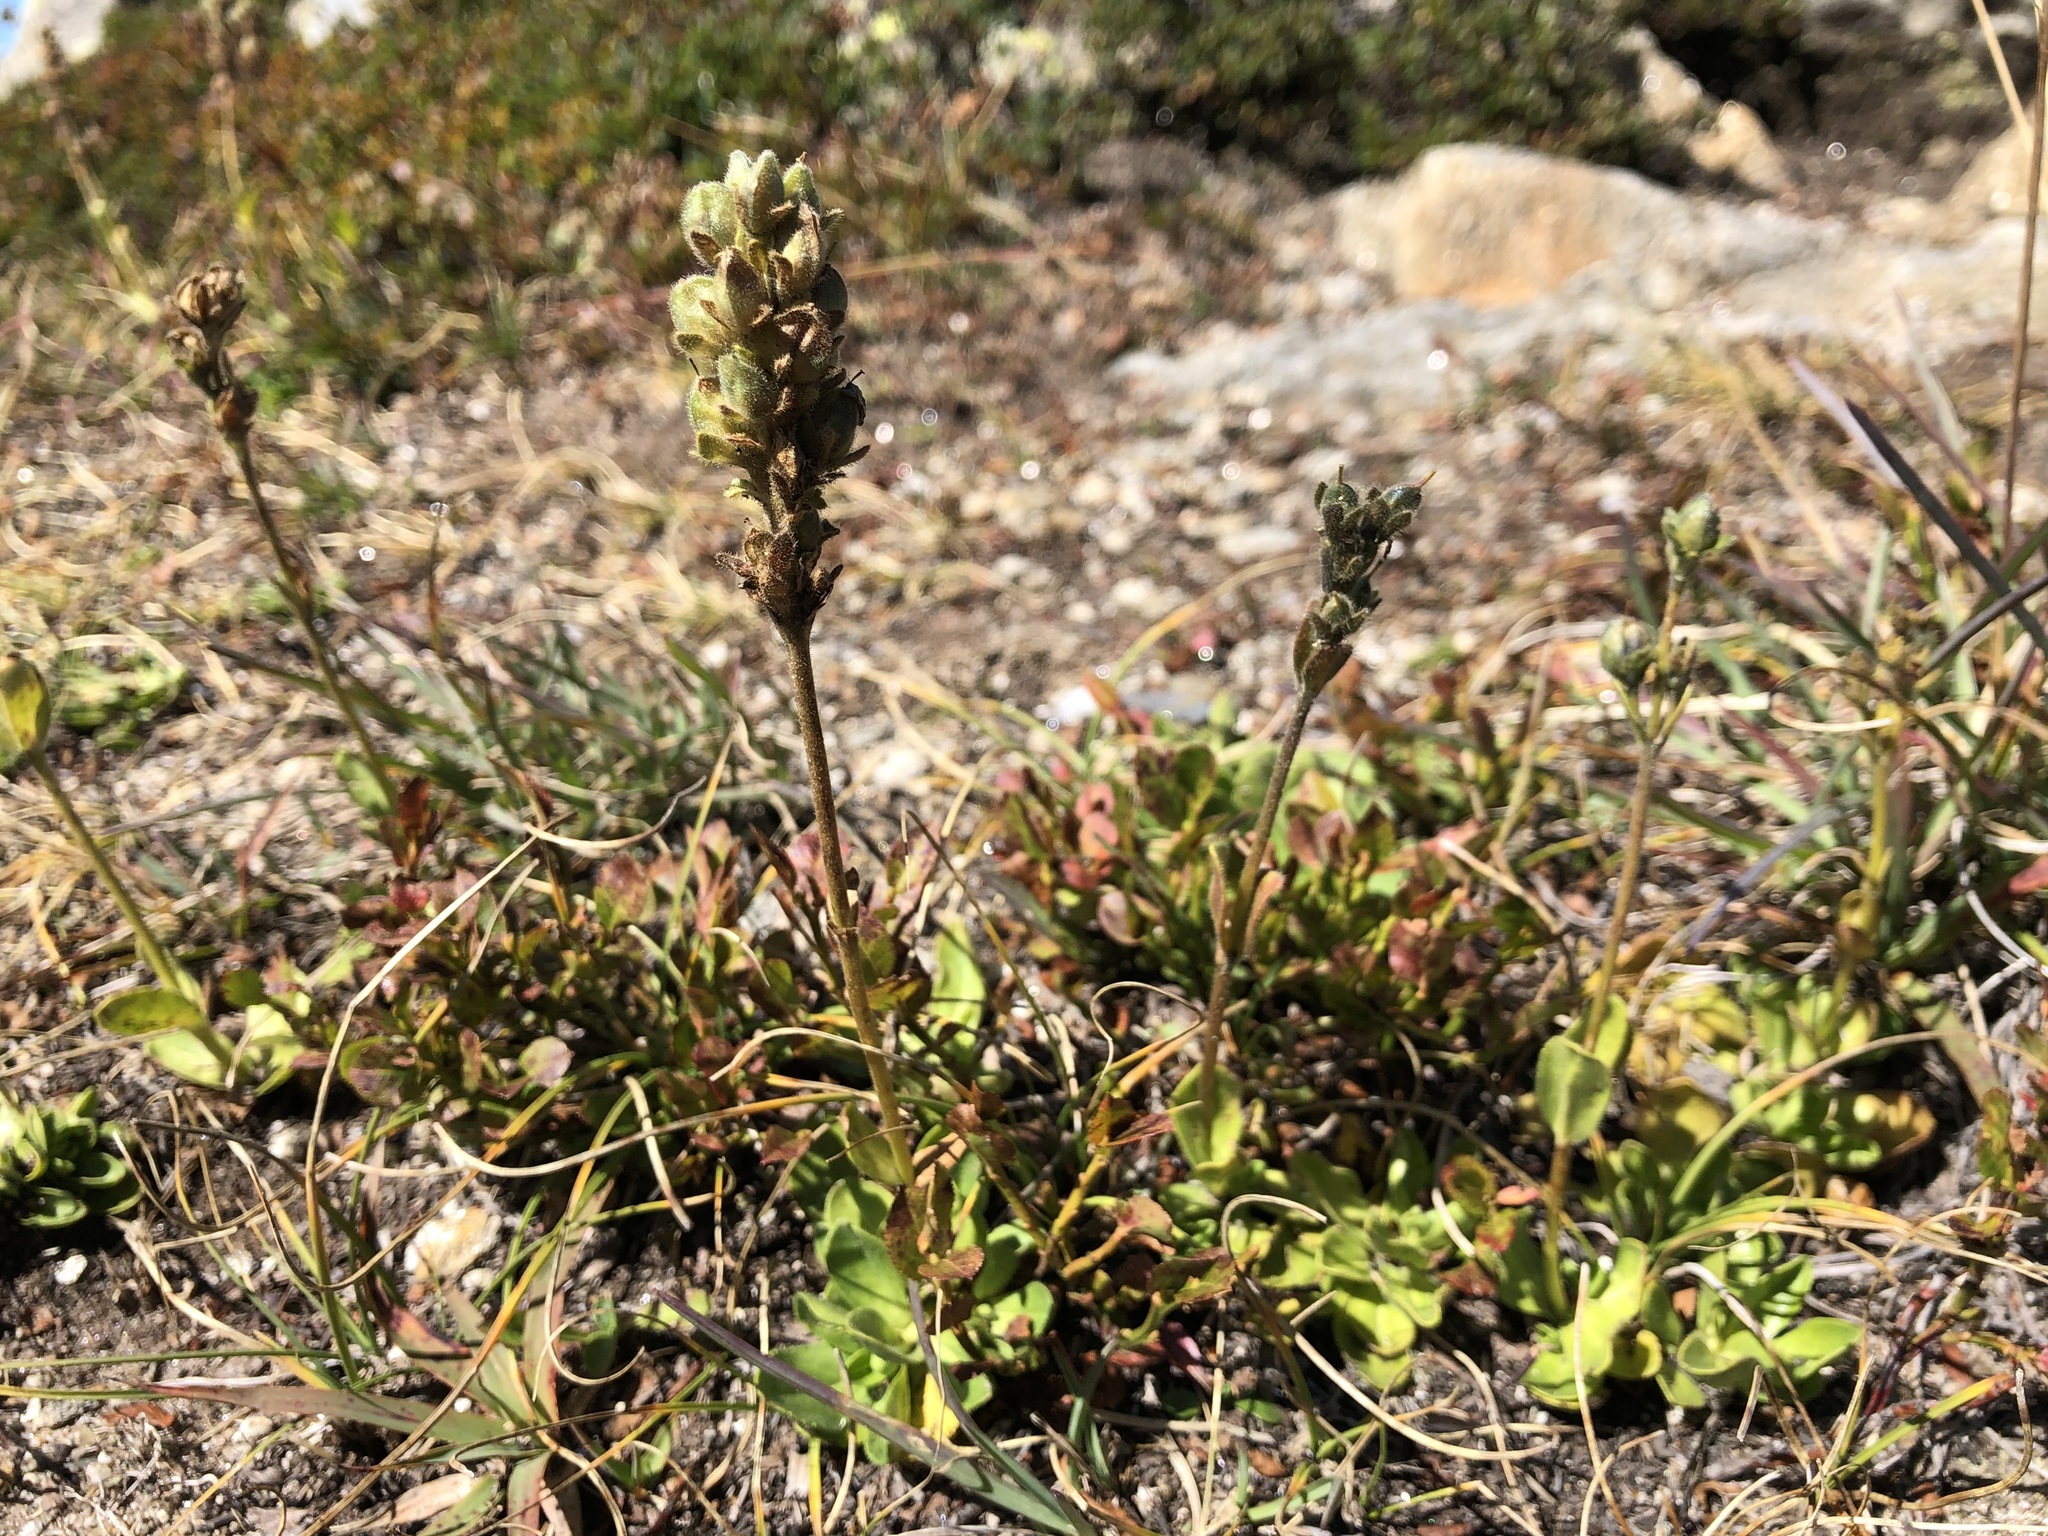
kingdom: Plantae
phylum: Tracheophyta
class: Magnoliopsida
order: Lamiales
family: Plantaginaceae
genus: Veronica
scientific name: Veronica bellidioides
